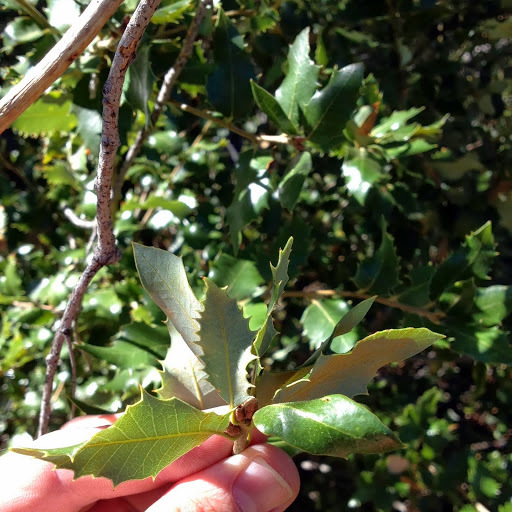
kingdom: Plantae
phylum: Tracheophyta
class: Magnoliopsida
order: Fagales
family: Fagaceae
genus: Quercus
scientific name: Quercus chrysolepis
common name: Canyon live oak
